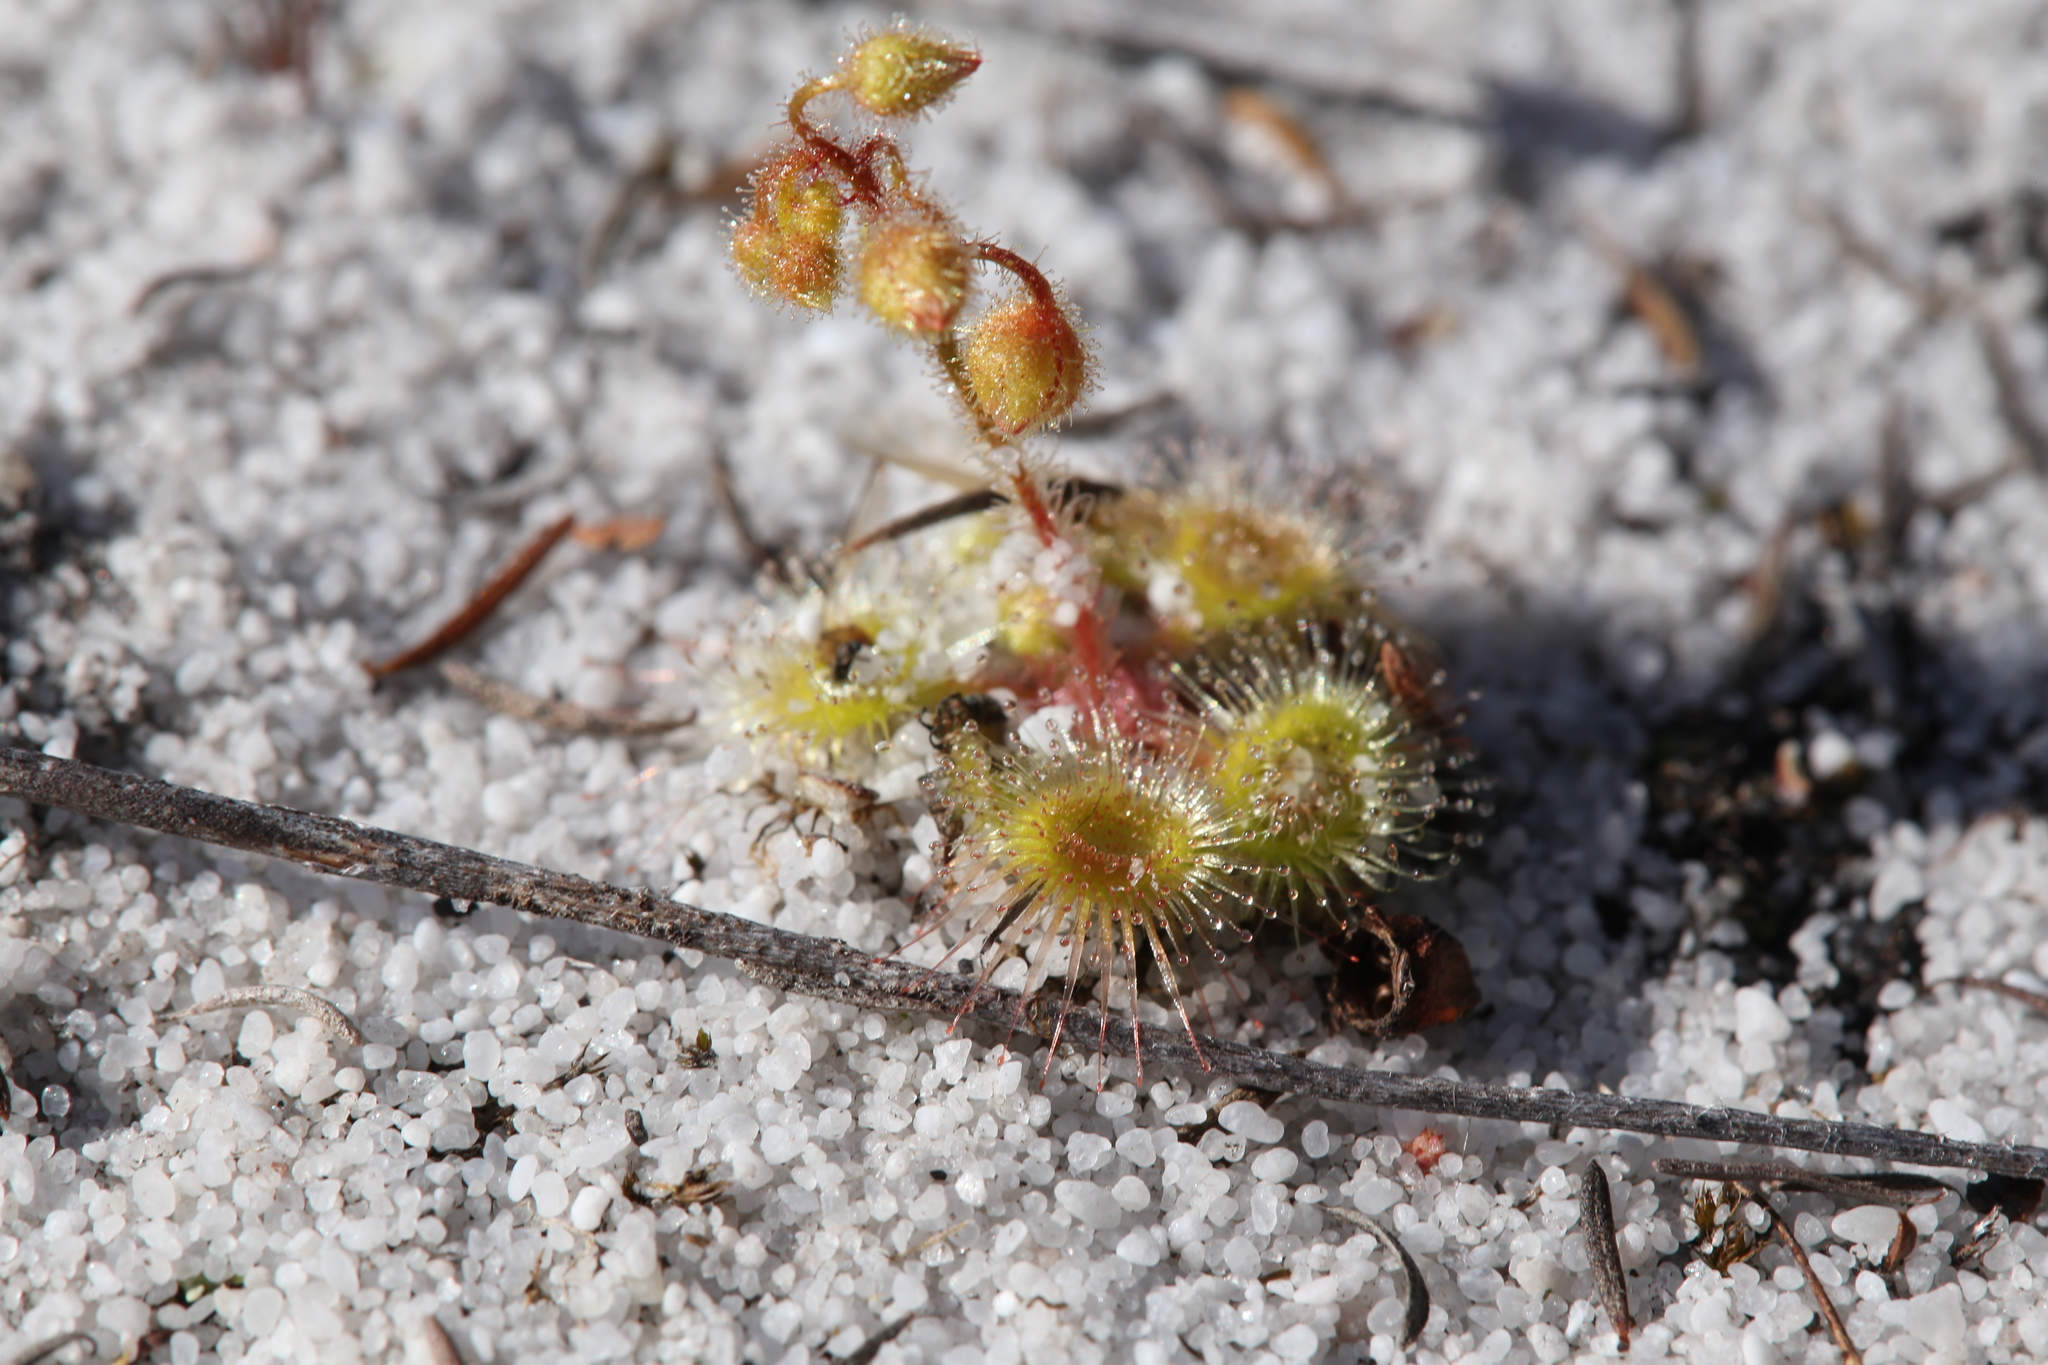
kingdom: Plantae
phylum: Tracheophyta
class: Magnoliopsida
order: Caryophyllales
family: Droseraceae
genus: Drosera
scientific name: Drosera glanduligera
